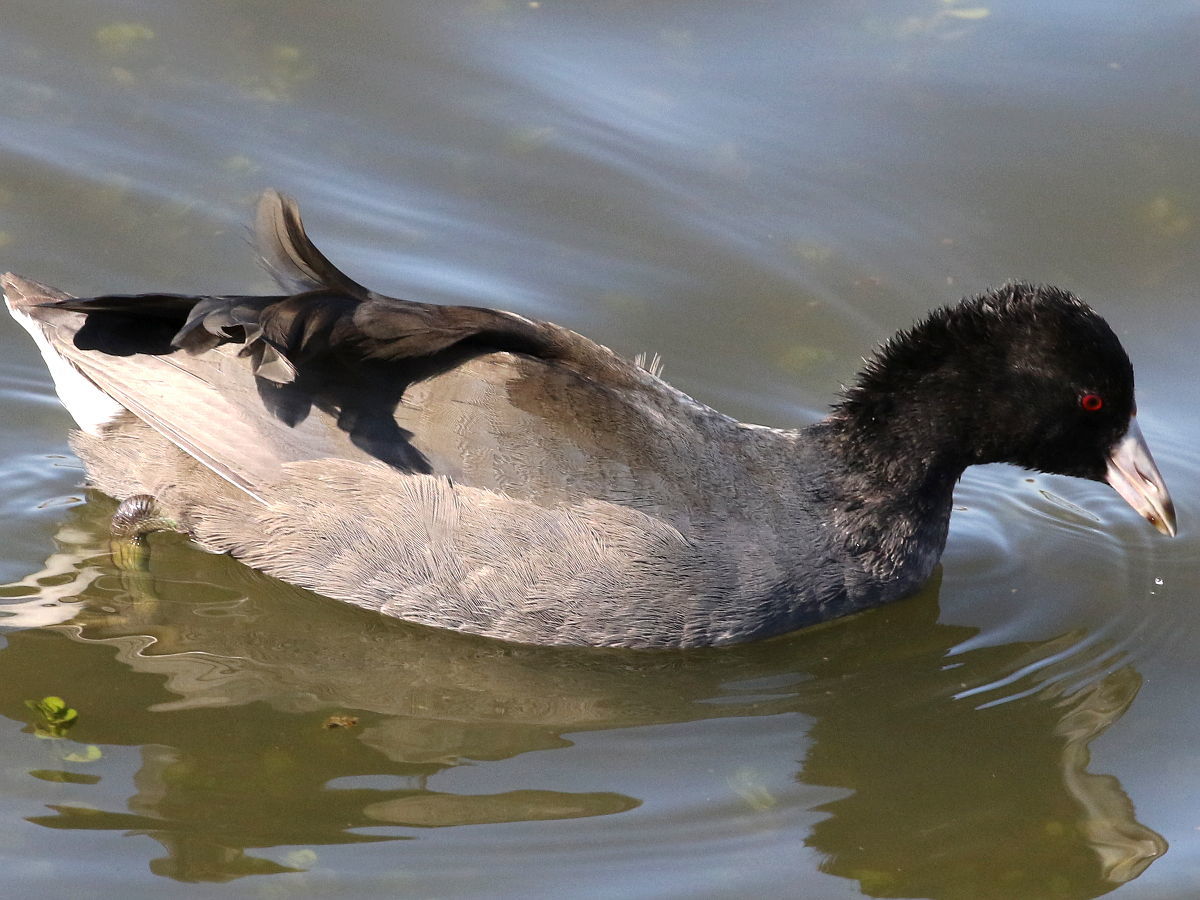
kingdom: Animalia
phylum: Chordata
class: Aves
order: Gruiformes
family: Rallidae
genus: Fulica
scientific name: Fulica americana
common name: American coot
